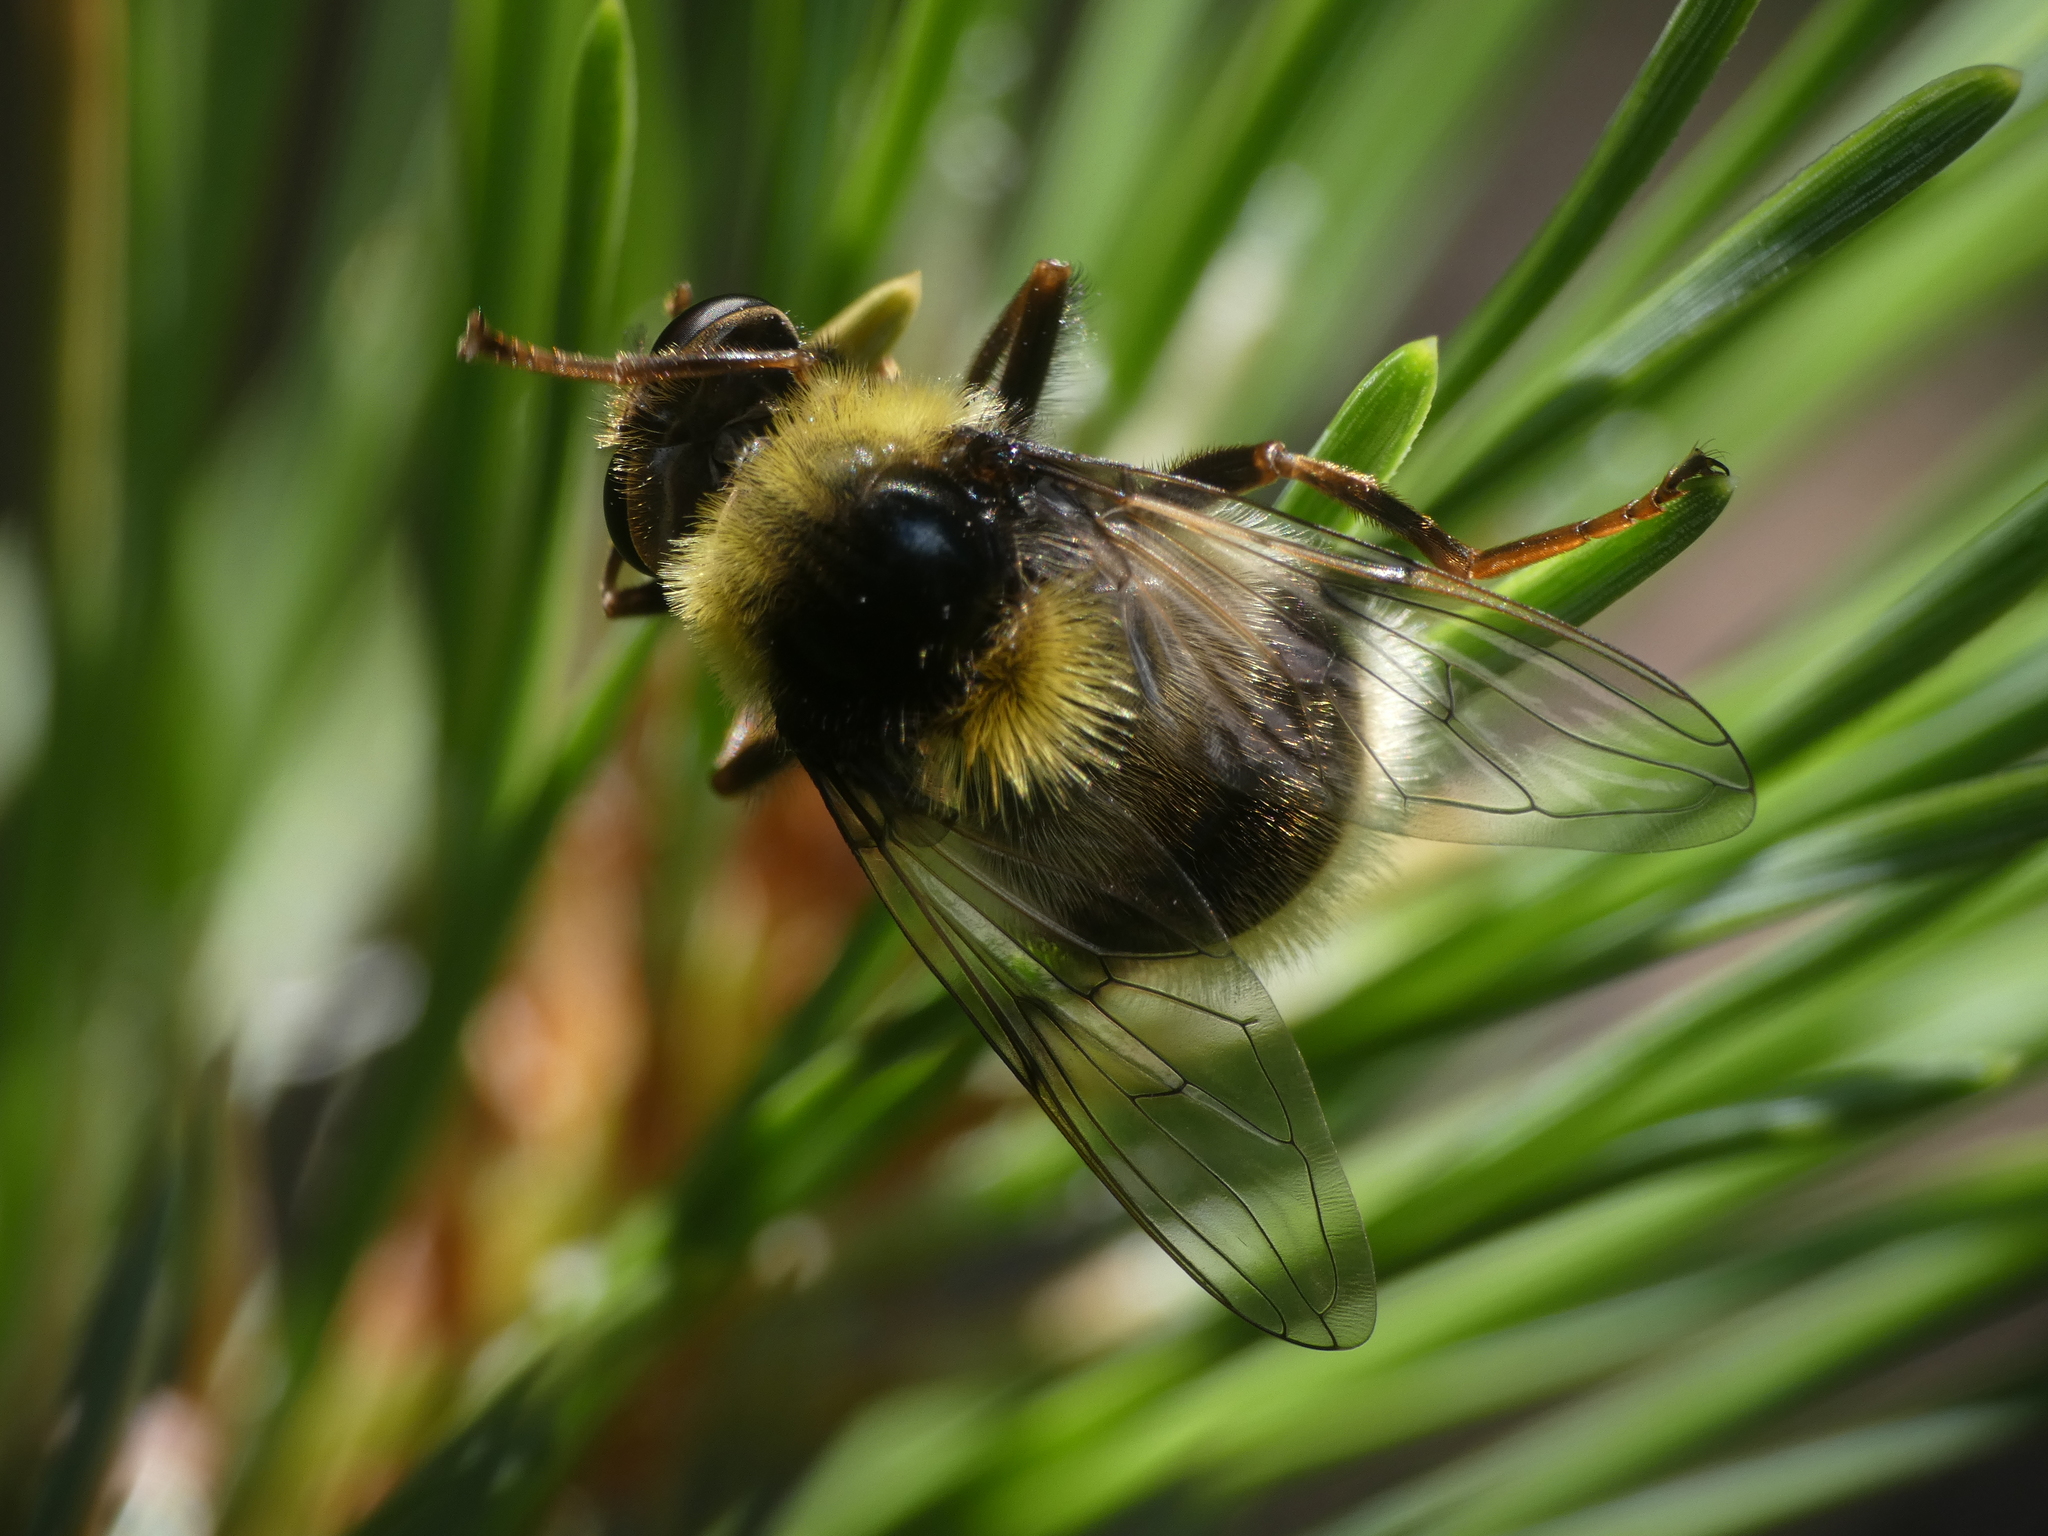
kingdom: Animalia
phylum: Arthropoda
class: Insecta
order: Diptera
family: Syrphidae
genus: Sericomyia
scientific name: Sericomyia bombiformis
